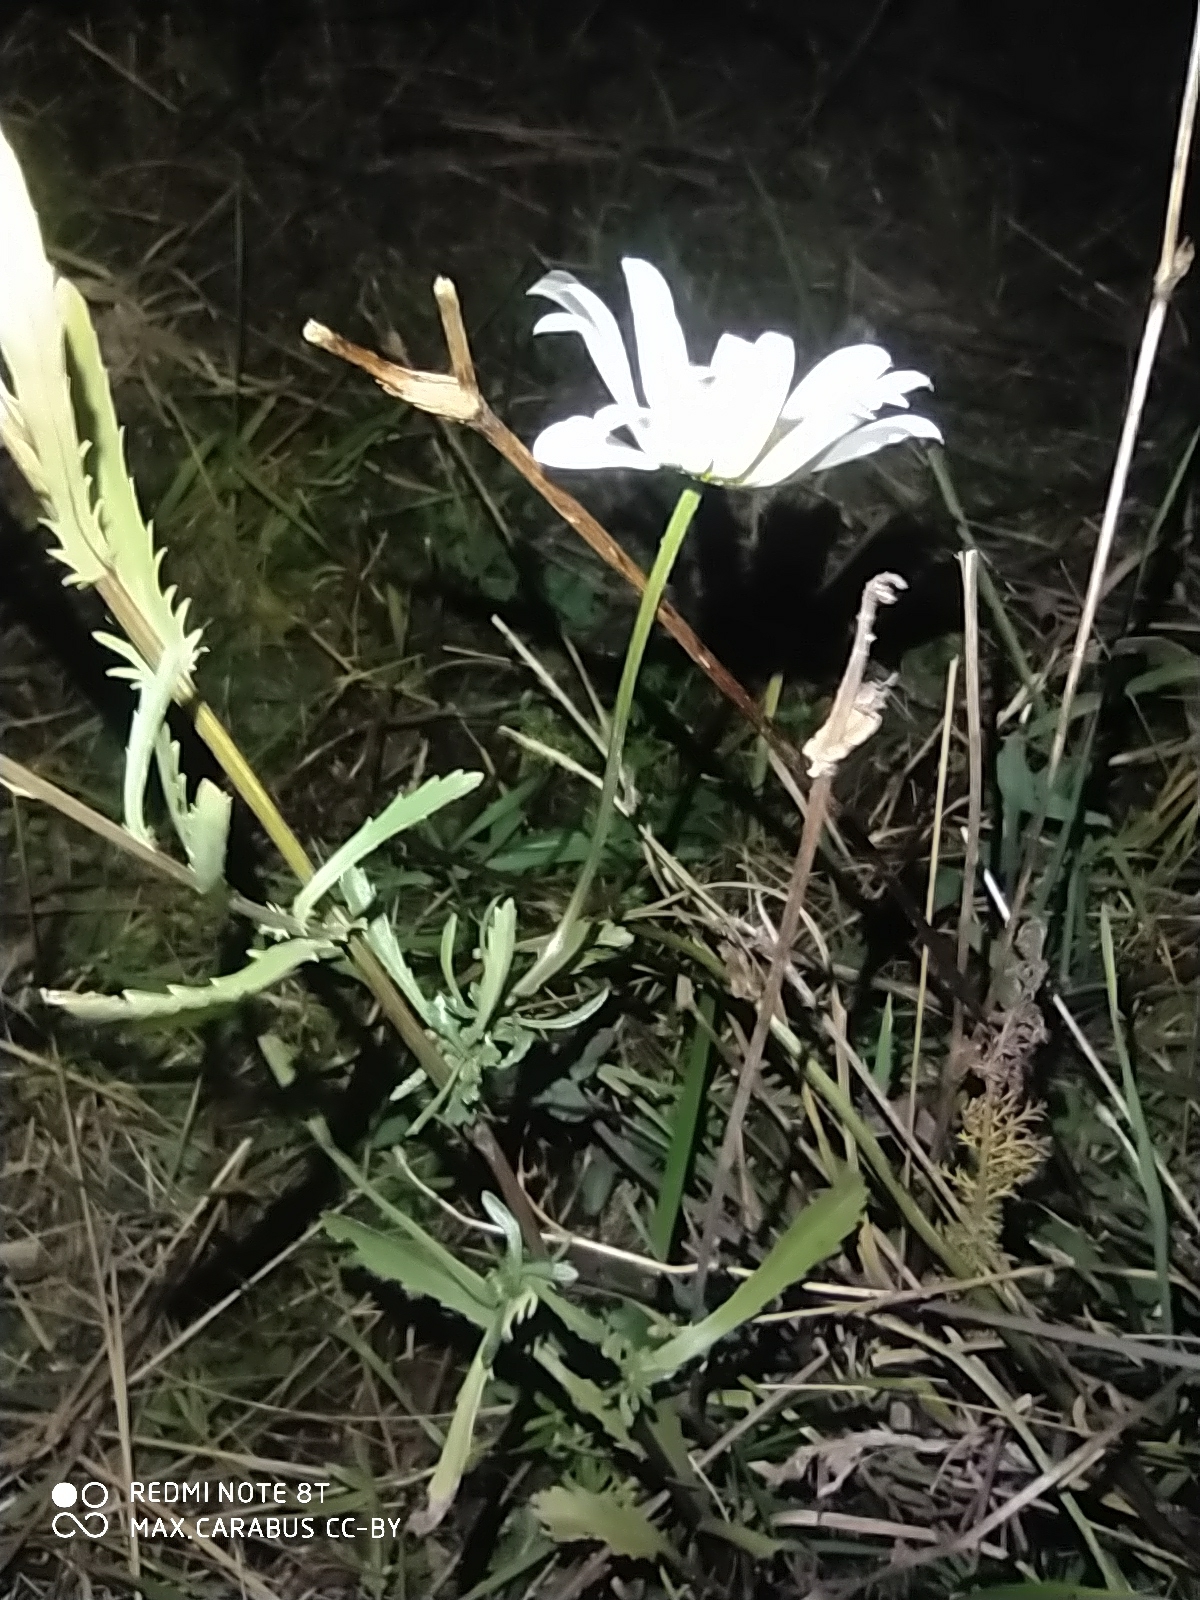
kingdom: Plantae
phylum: Tracheophyta
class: Magnoliopsida
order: Asterales
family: Asteraceae
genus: Leucanthemum
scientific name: Leucanthemum vulgare
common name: Oxeye daisy
